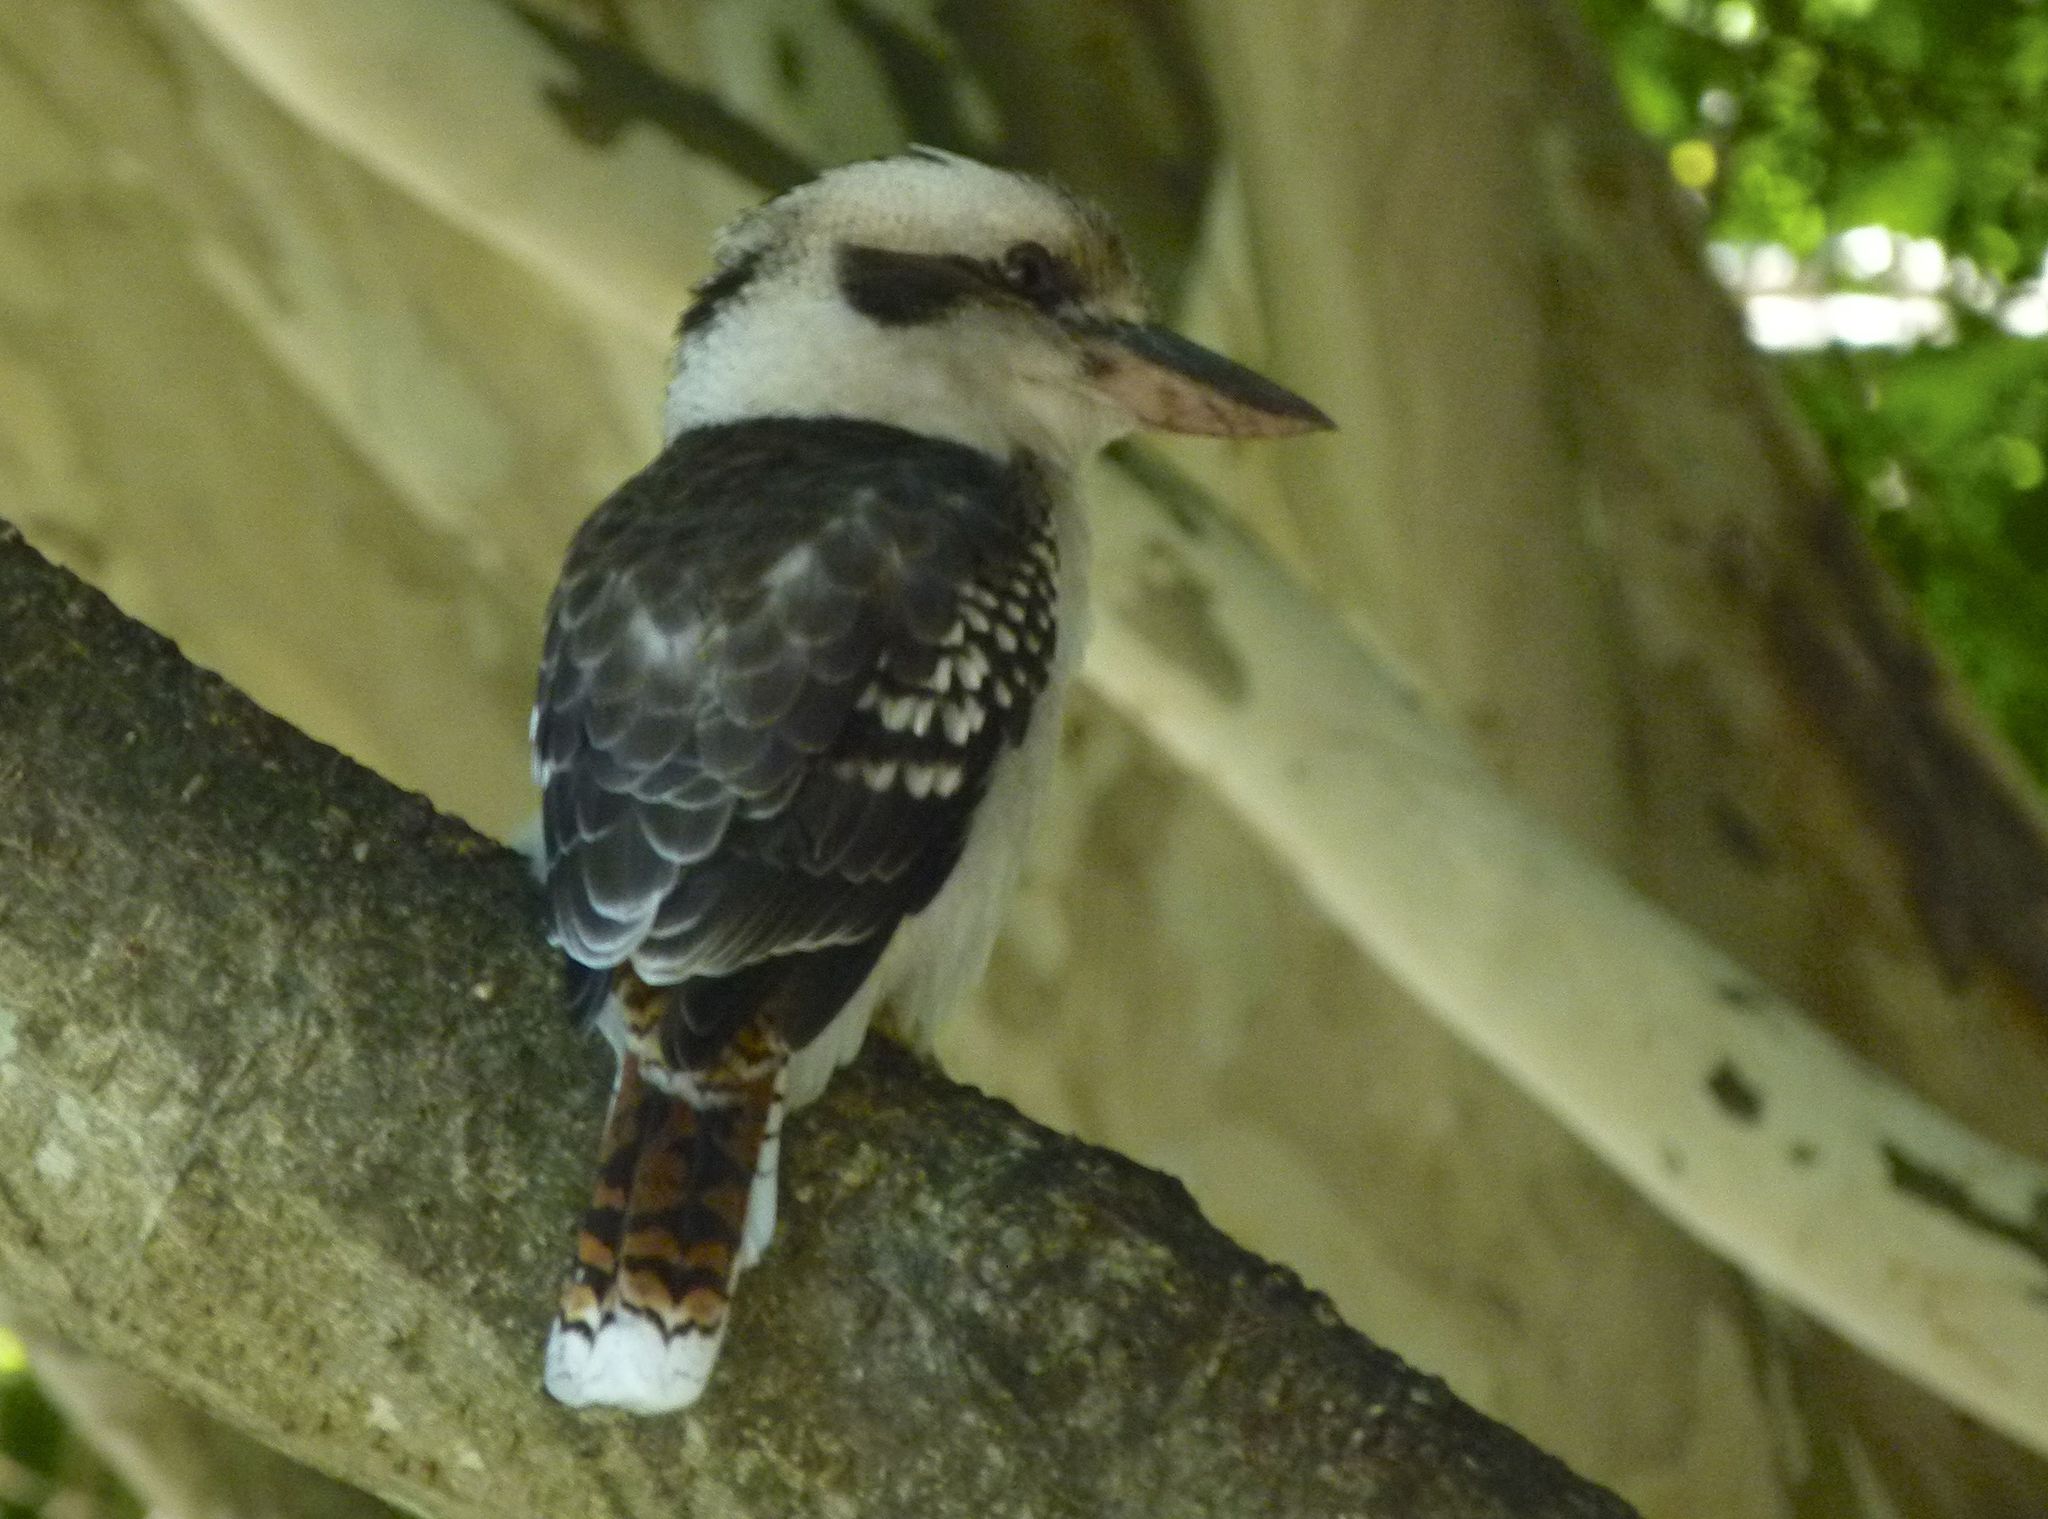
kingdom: Animalia
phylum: Chordata
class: Aves
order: Coraciiformes
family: Alcedinidae
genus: Dacelo
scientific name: Dacelo novaeguineae
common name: Laughing kookaburra
